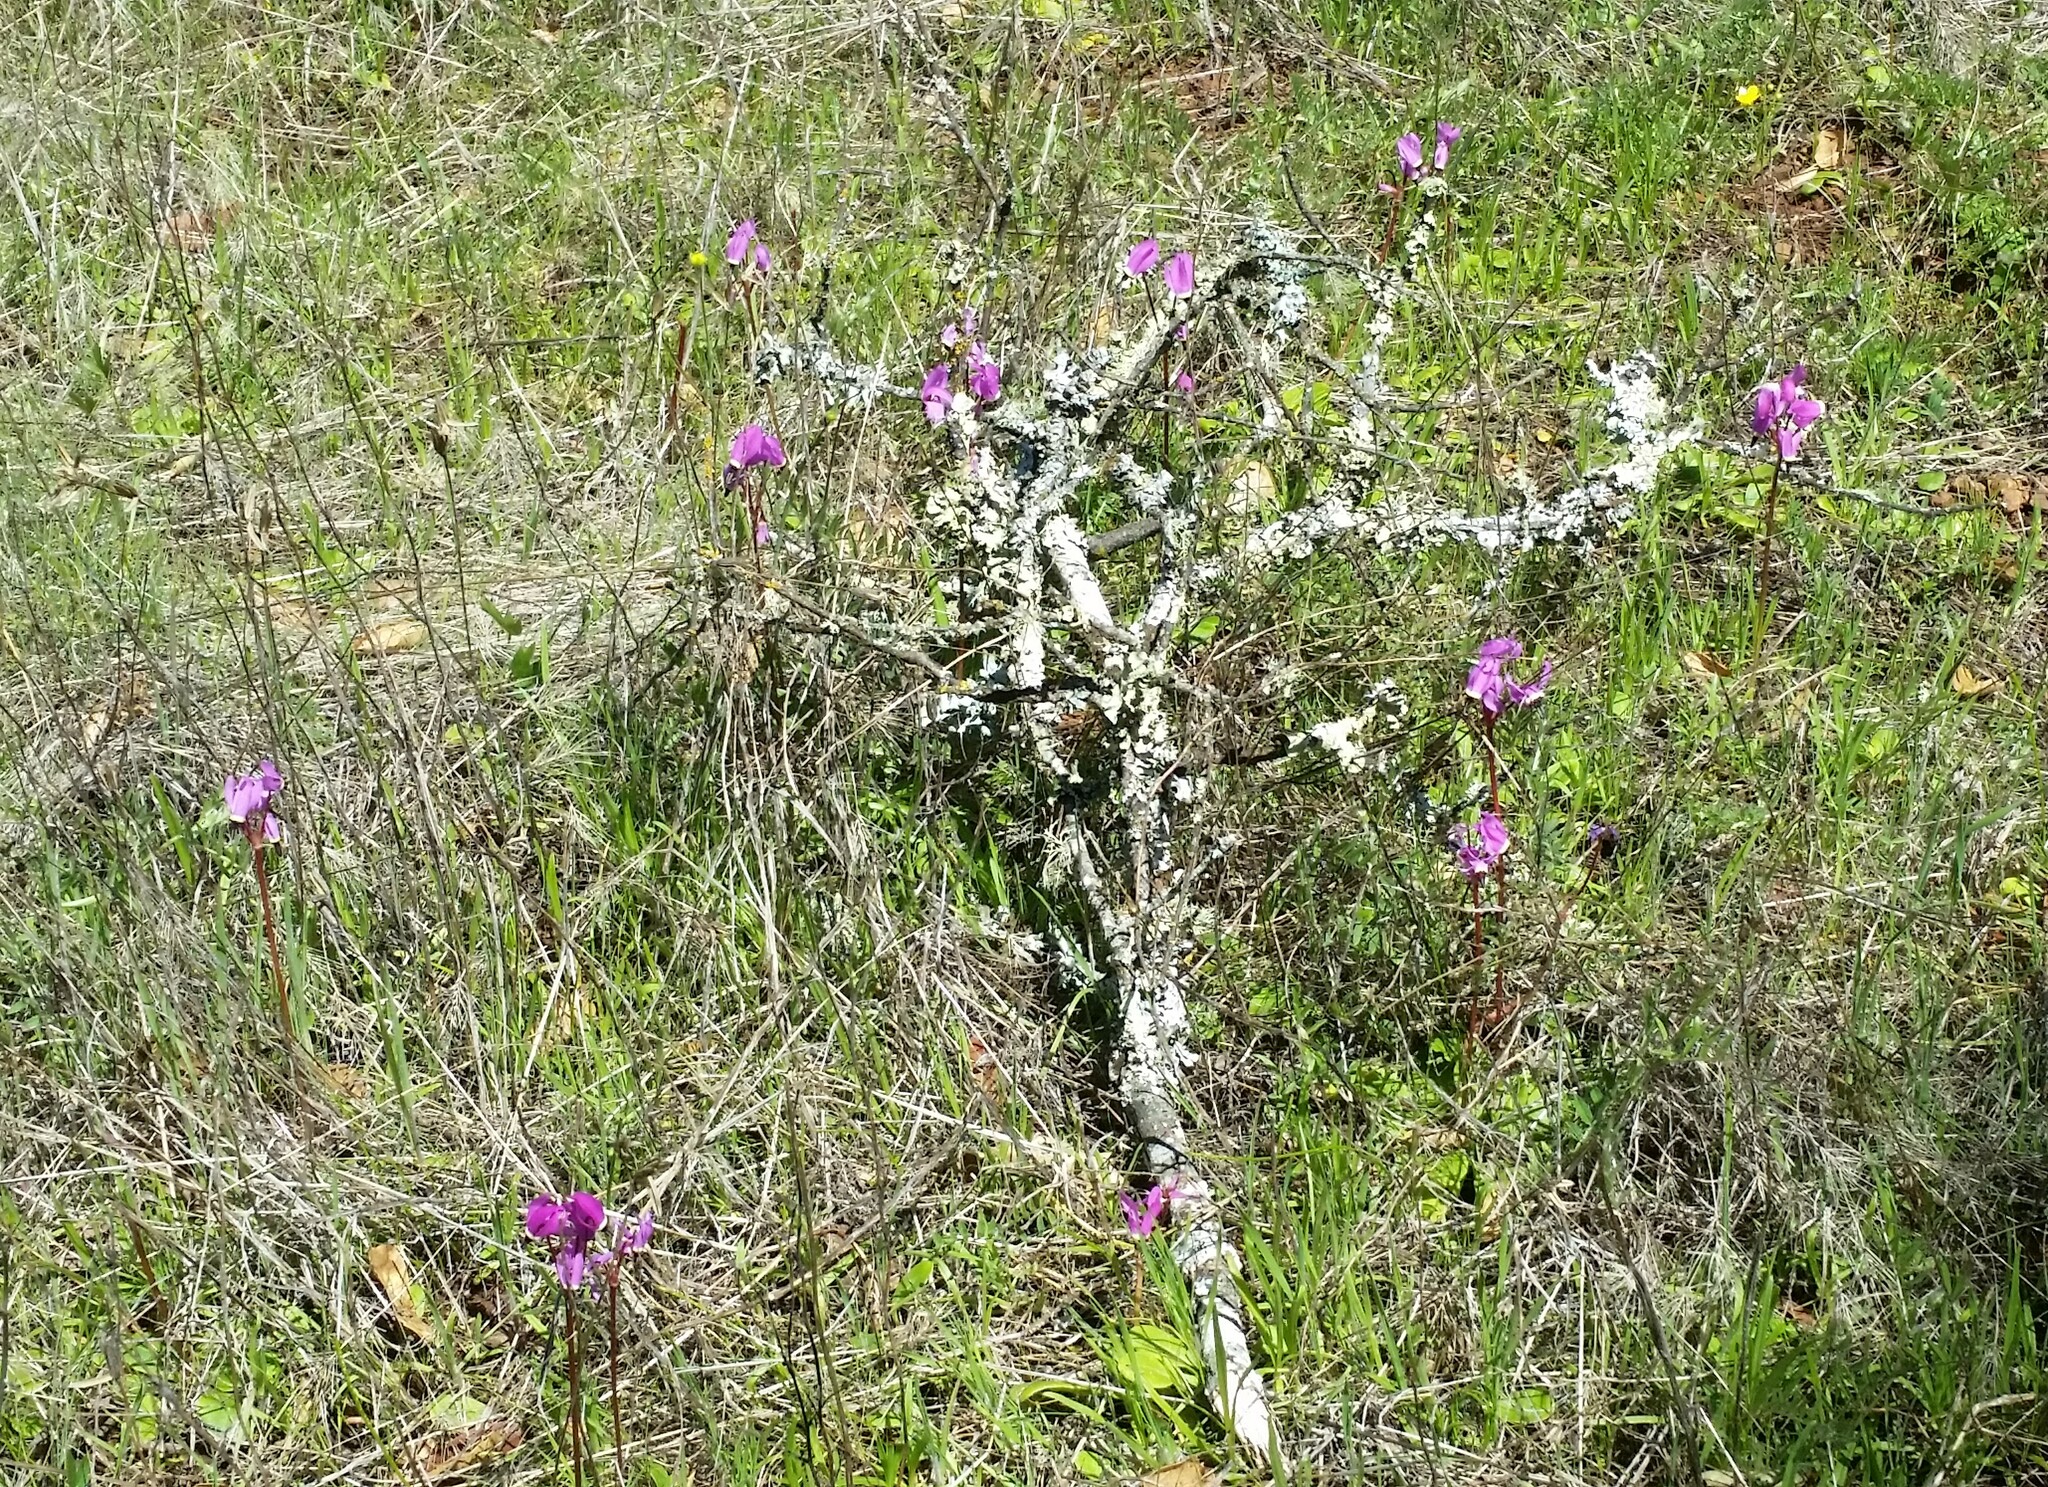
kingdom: Plantae
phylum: Tracheophyta
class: Magnoliopsida
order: Ericales
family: Primulaceae
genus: Dodecatheon
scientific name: Dodecatheon hendersonii
